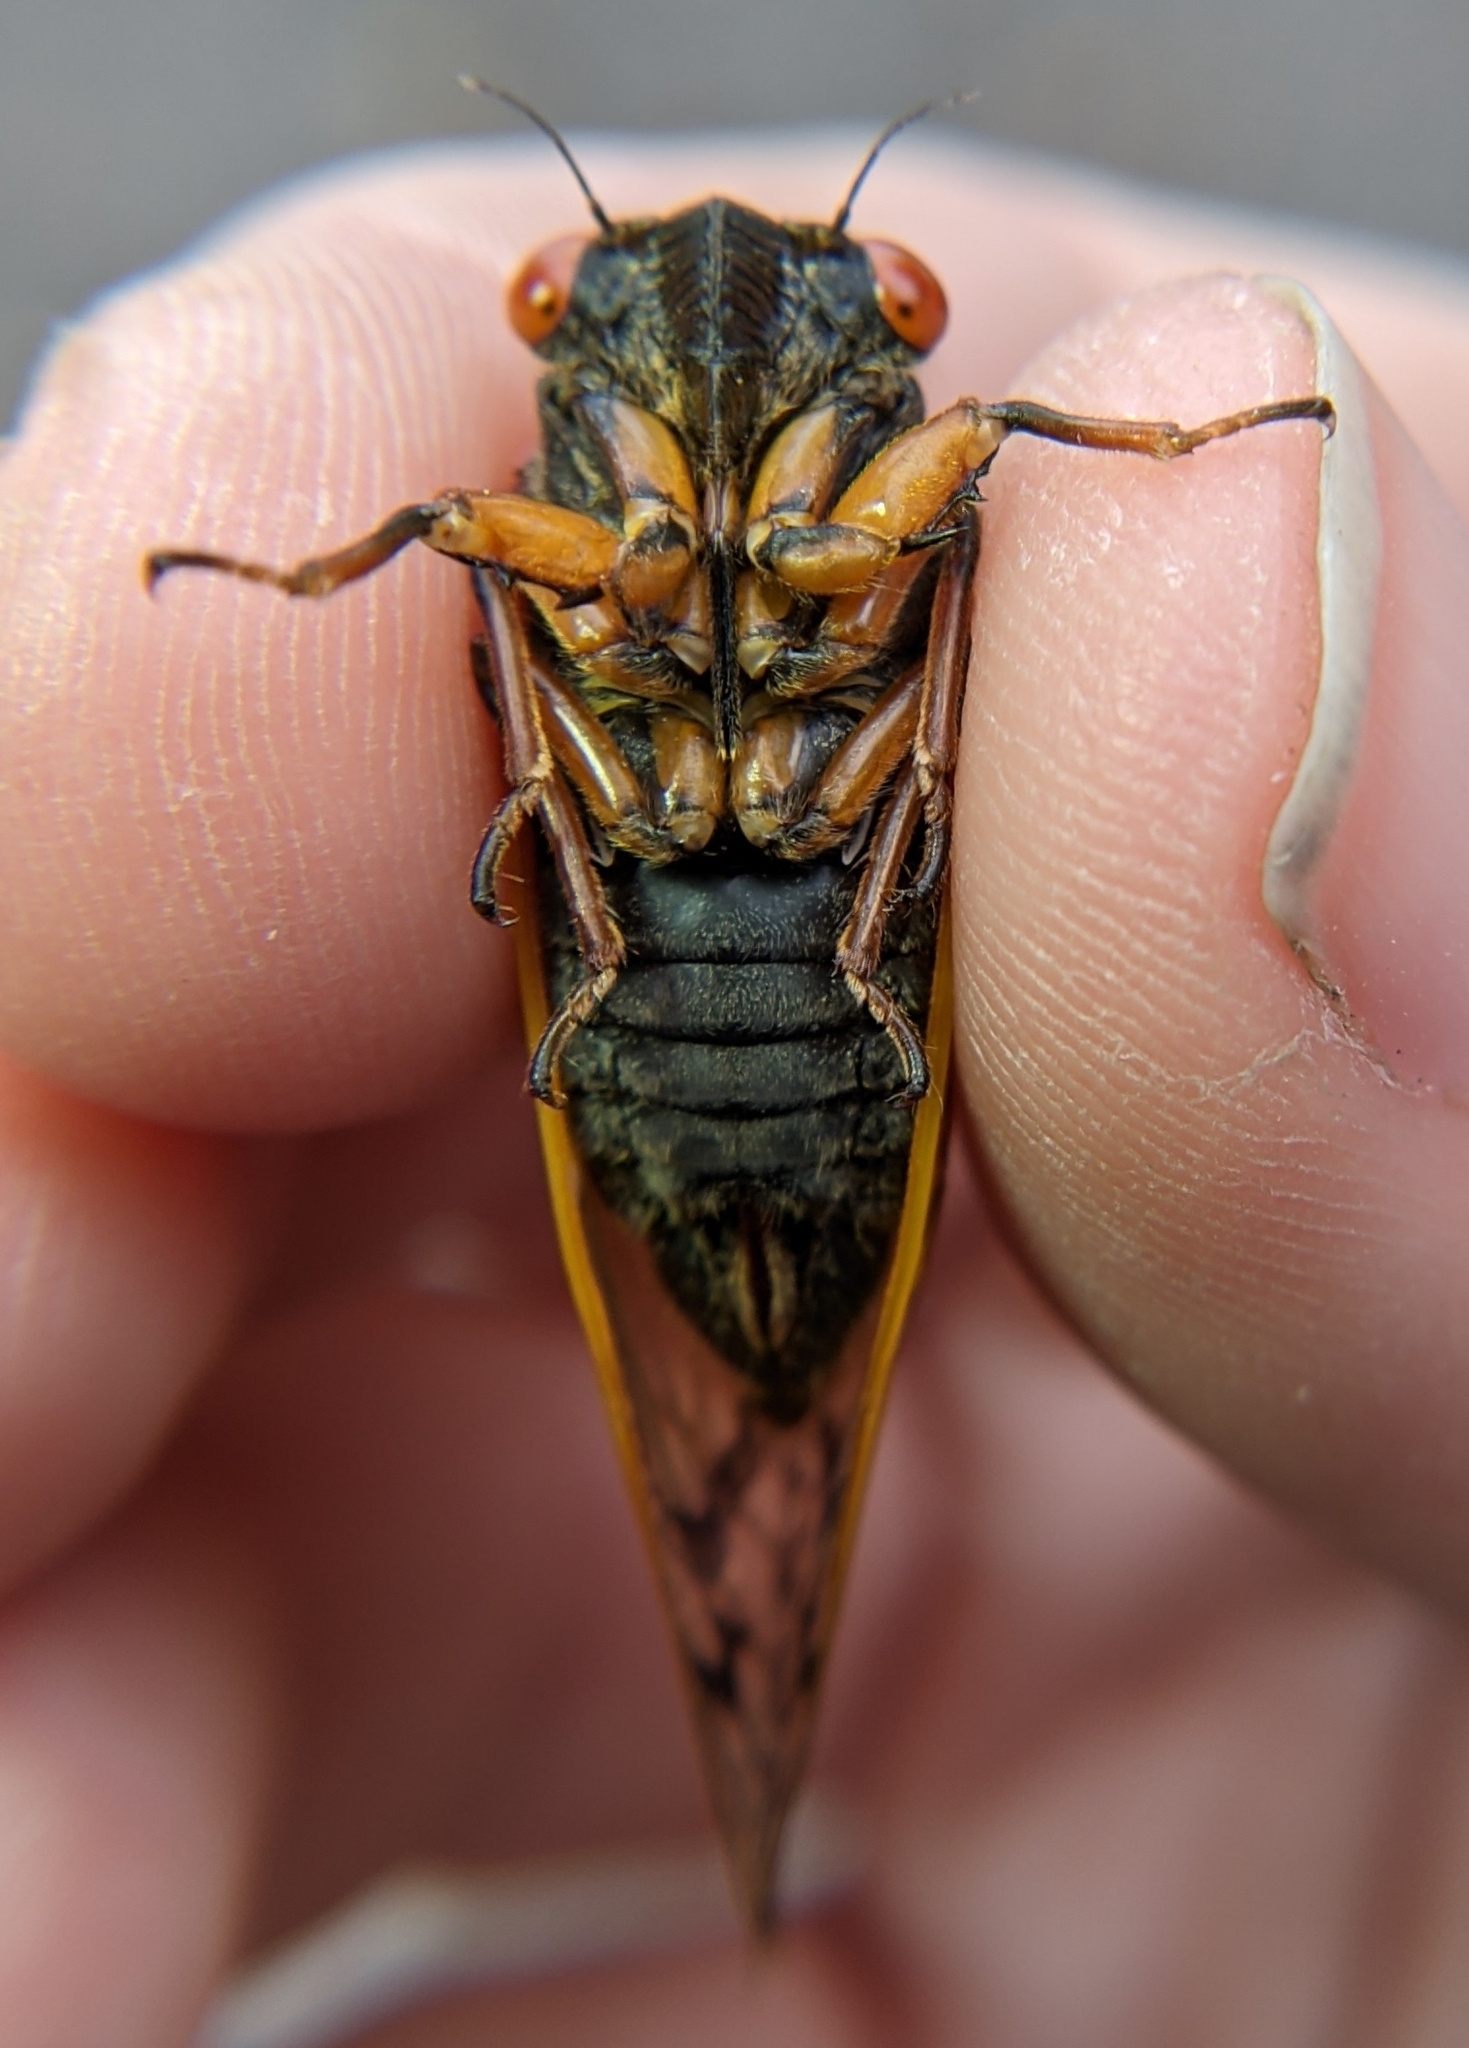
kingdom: Animalia
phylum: Arthropoda
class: Insecta
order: Hemiptera
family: Cicadidae
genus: Magicicada
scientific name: Magicicada cassini
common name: Cassin's 17-year cicada
